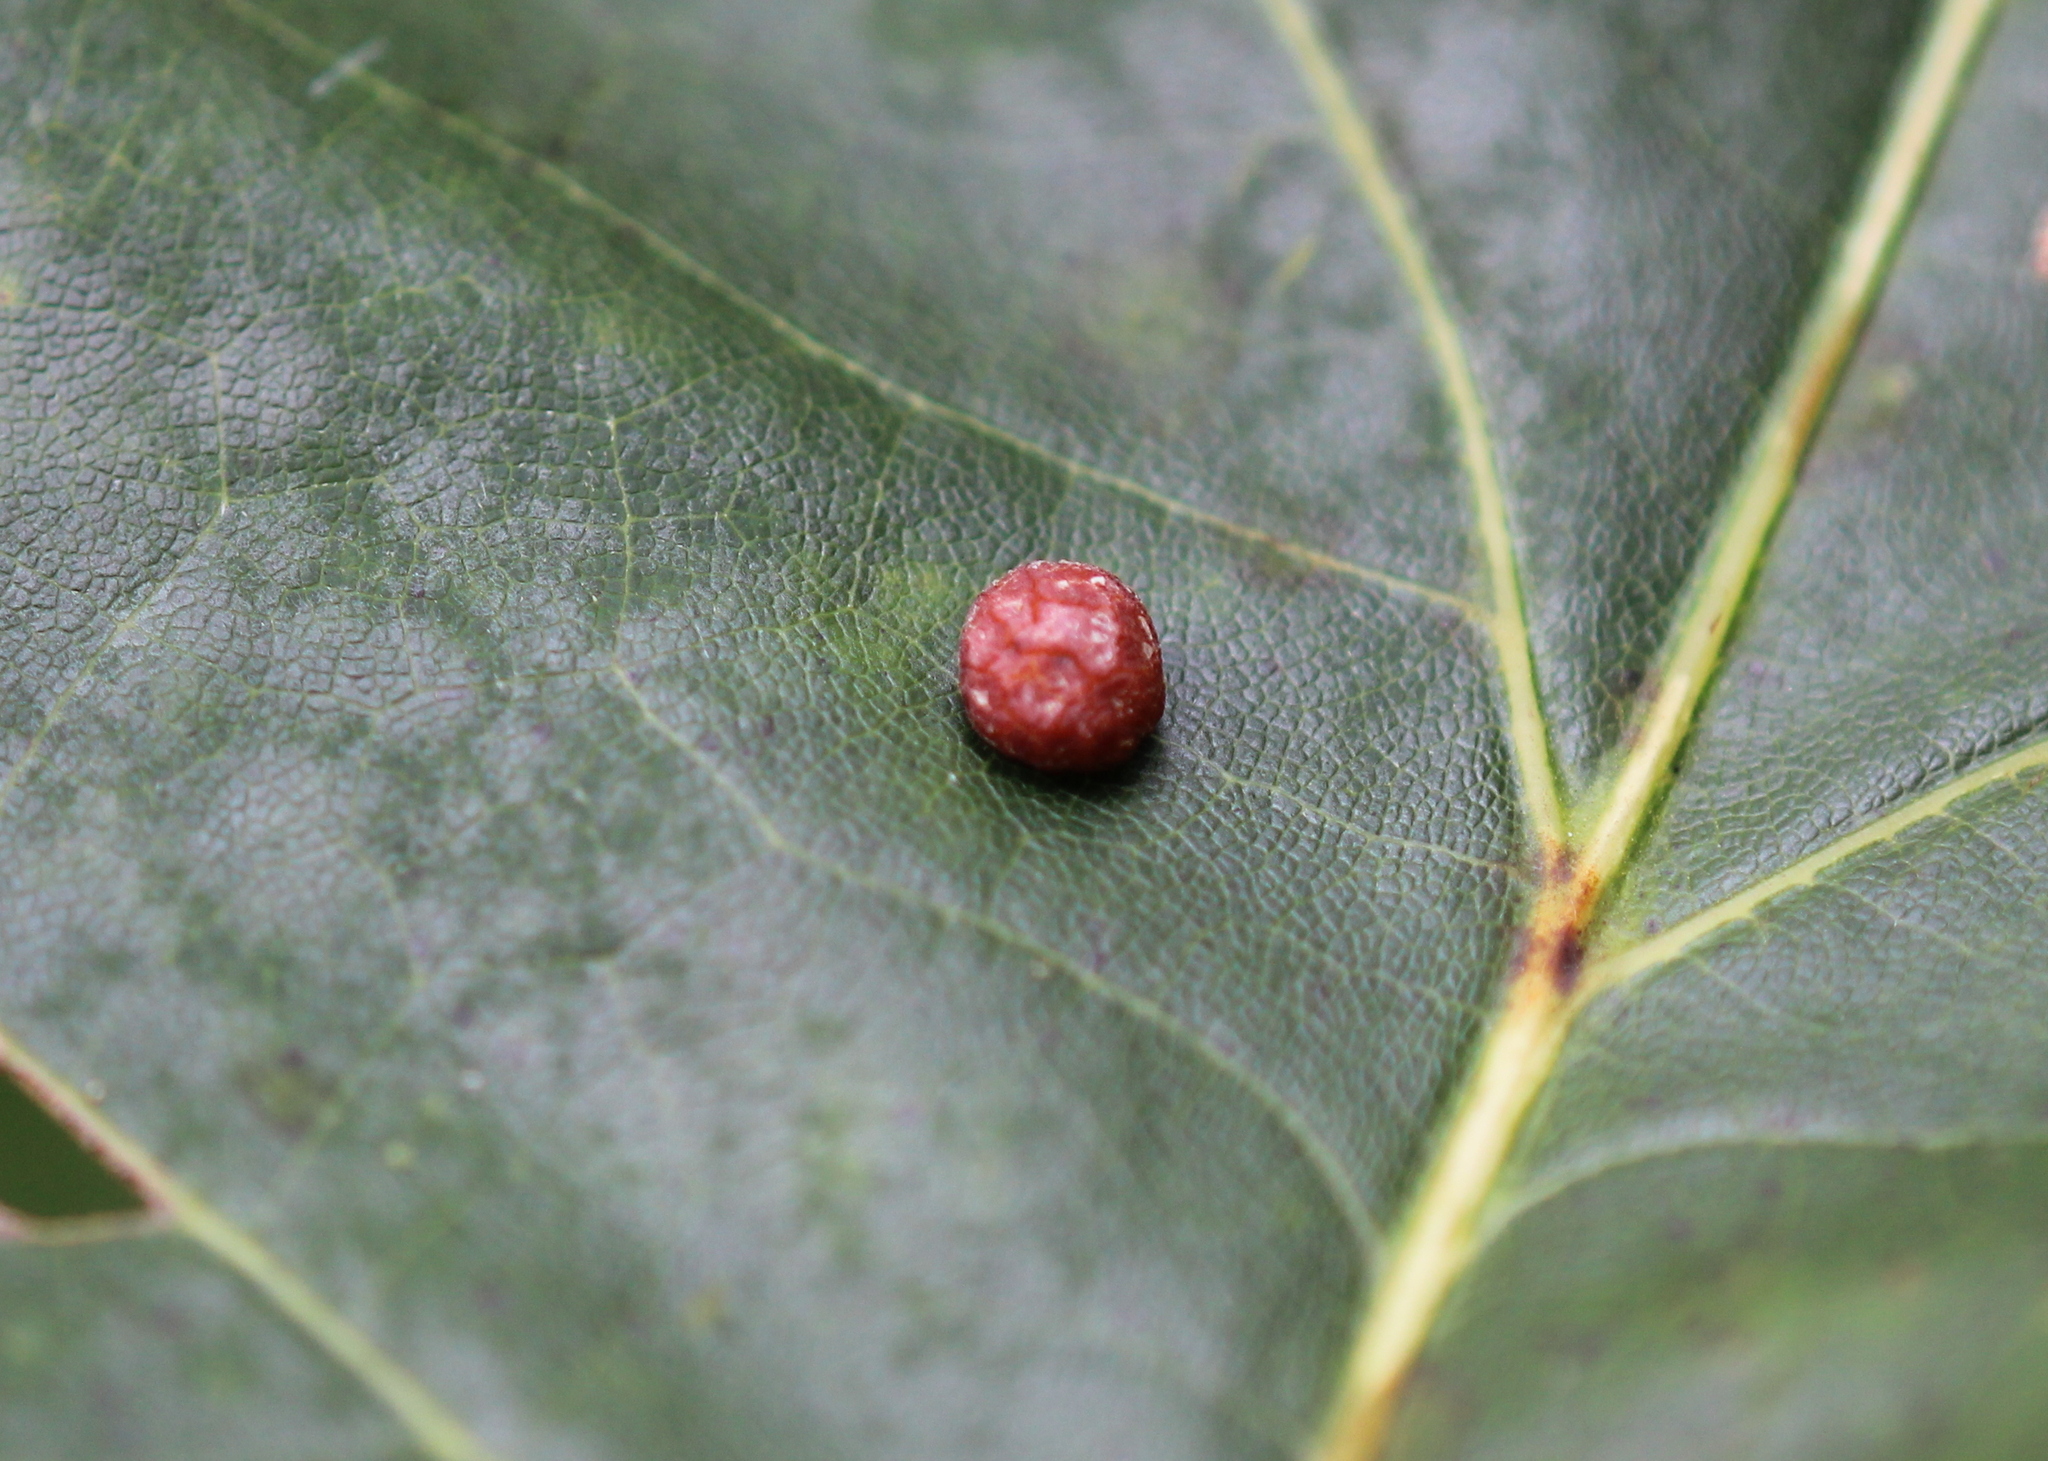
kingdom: Animalia
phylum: Arthropoda
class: Insecta
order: Diptera
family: Cecidomyiidae
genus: Polystepha
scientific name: Polystepha pilulae
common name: Oak leaf gall midge
